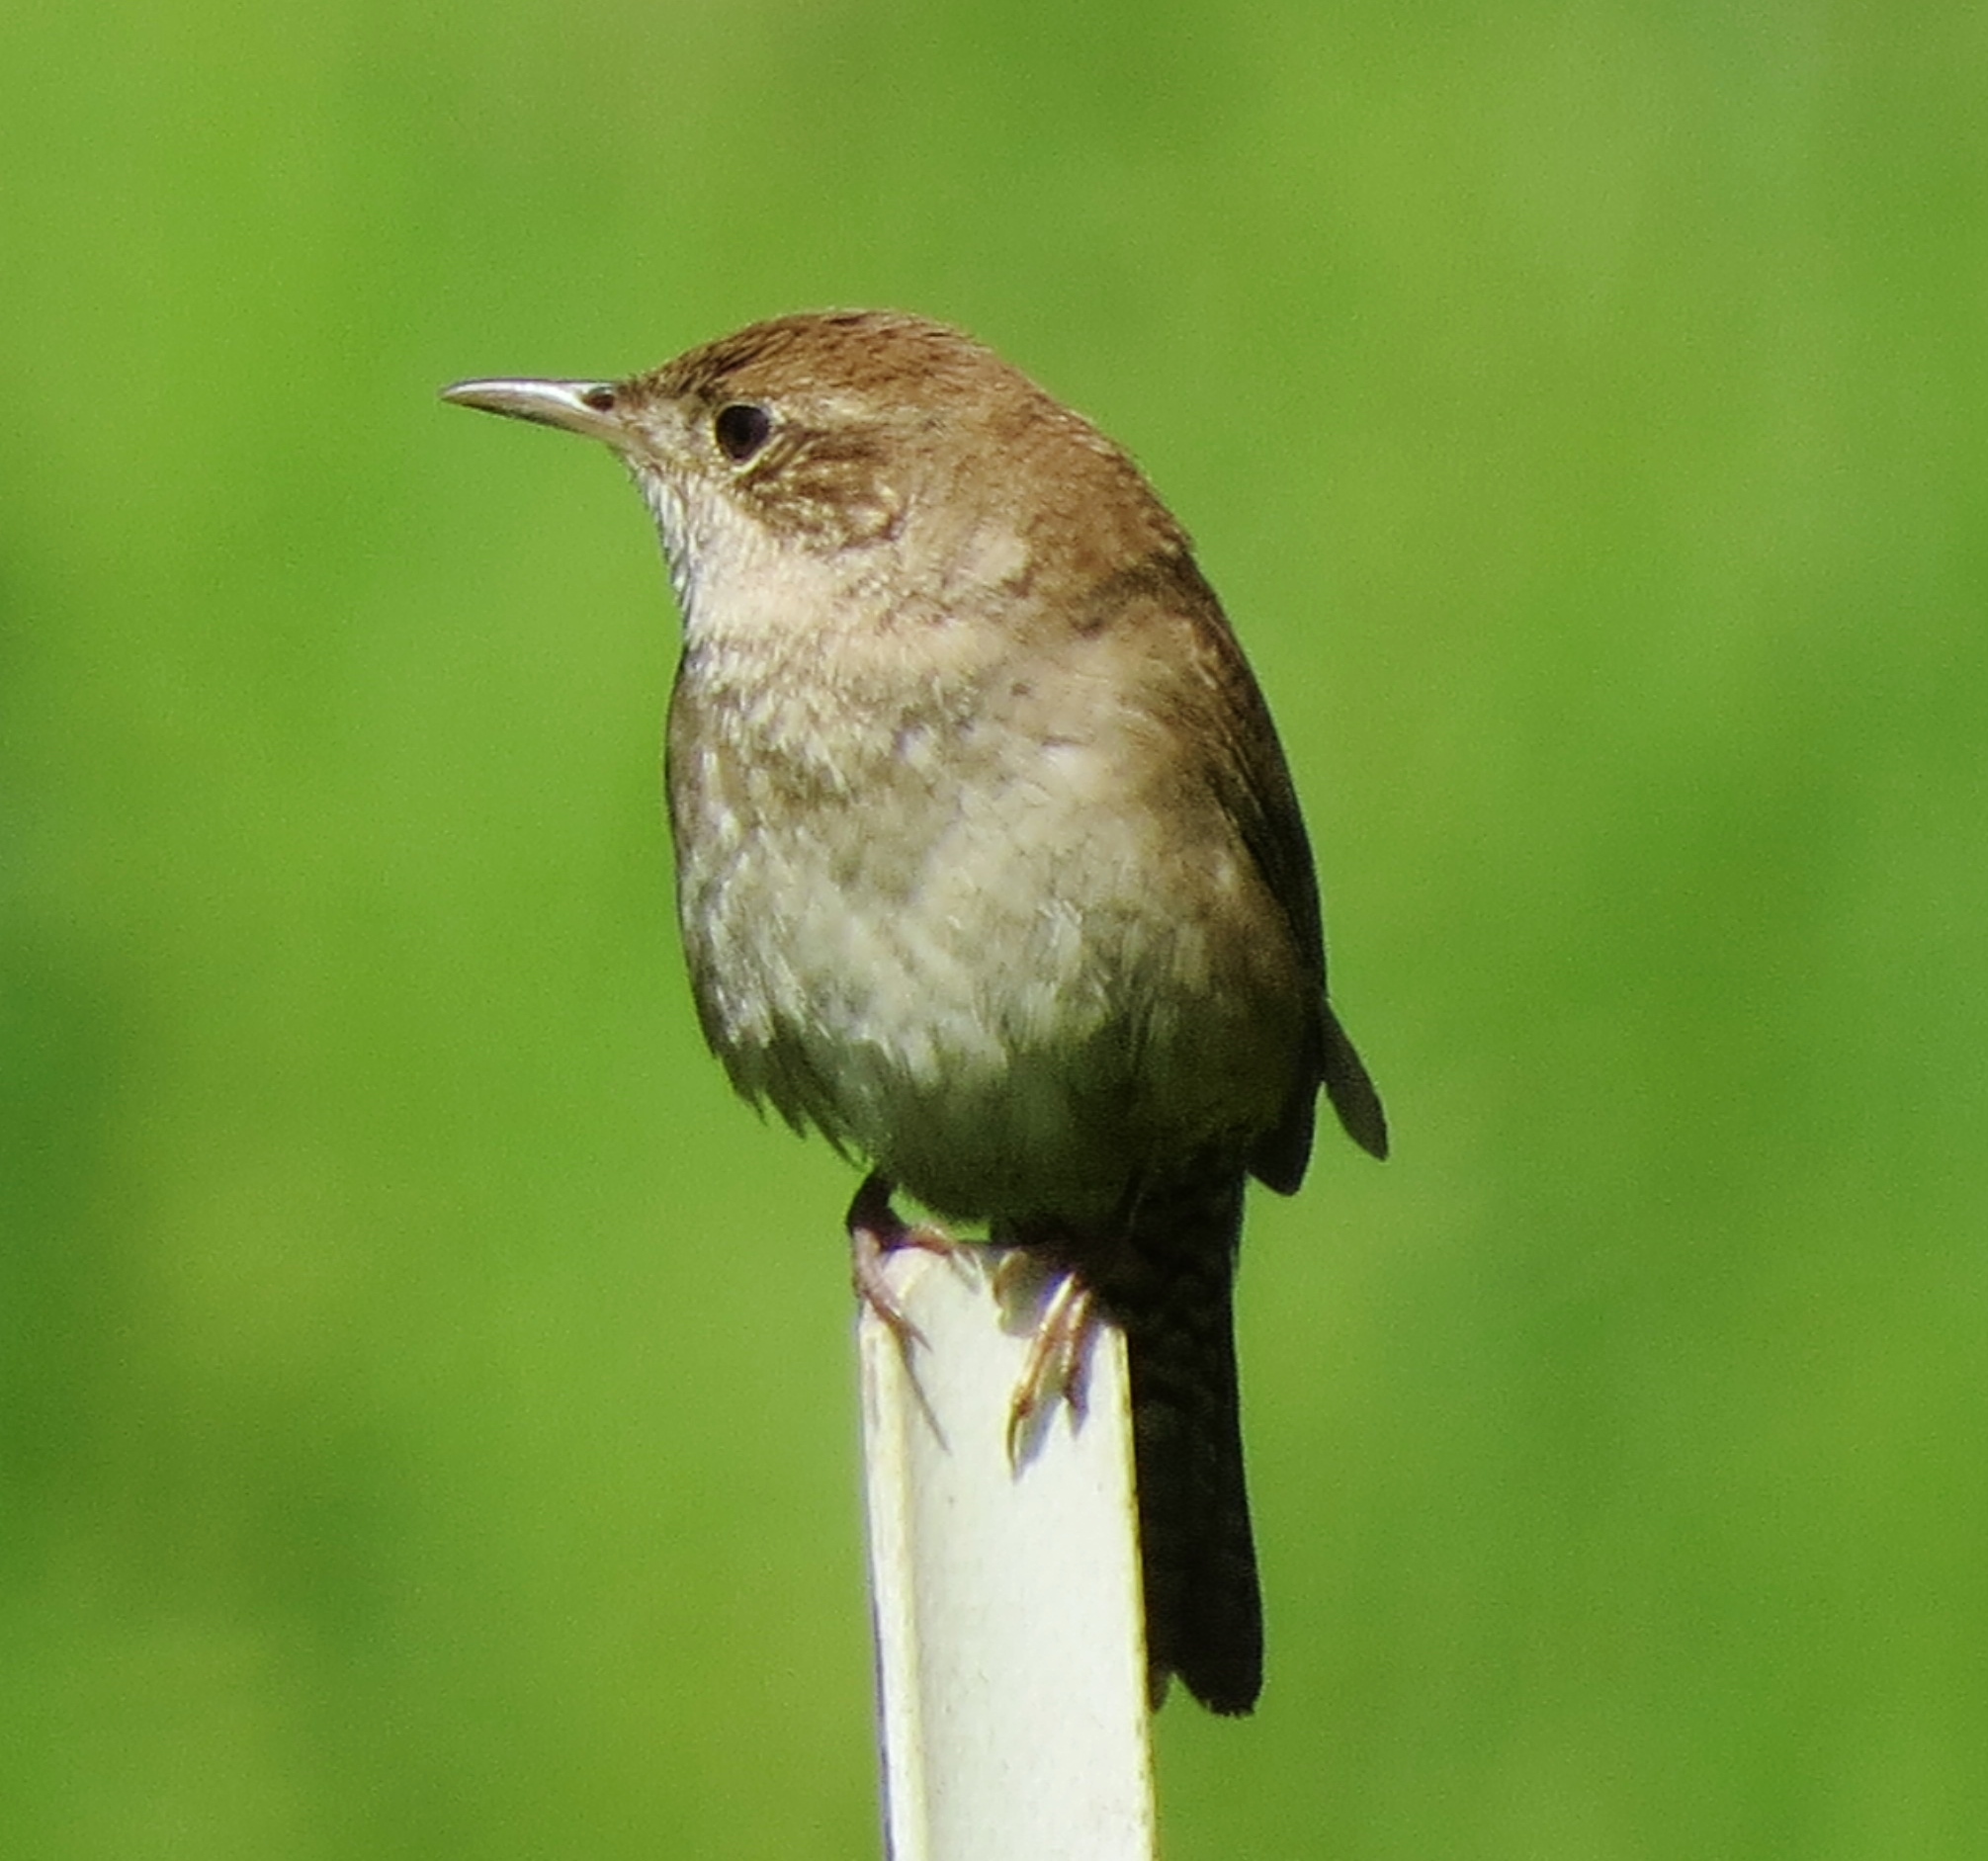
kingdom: Animalia
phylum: Chordata
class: Aves
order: Passeriformes
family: Troglodytidae
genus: Troglodytes
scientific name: Troglodytes aedon
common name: House wren
